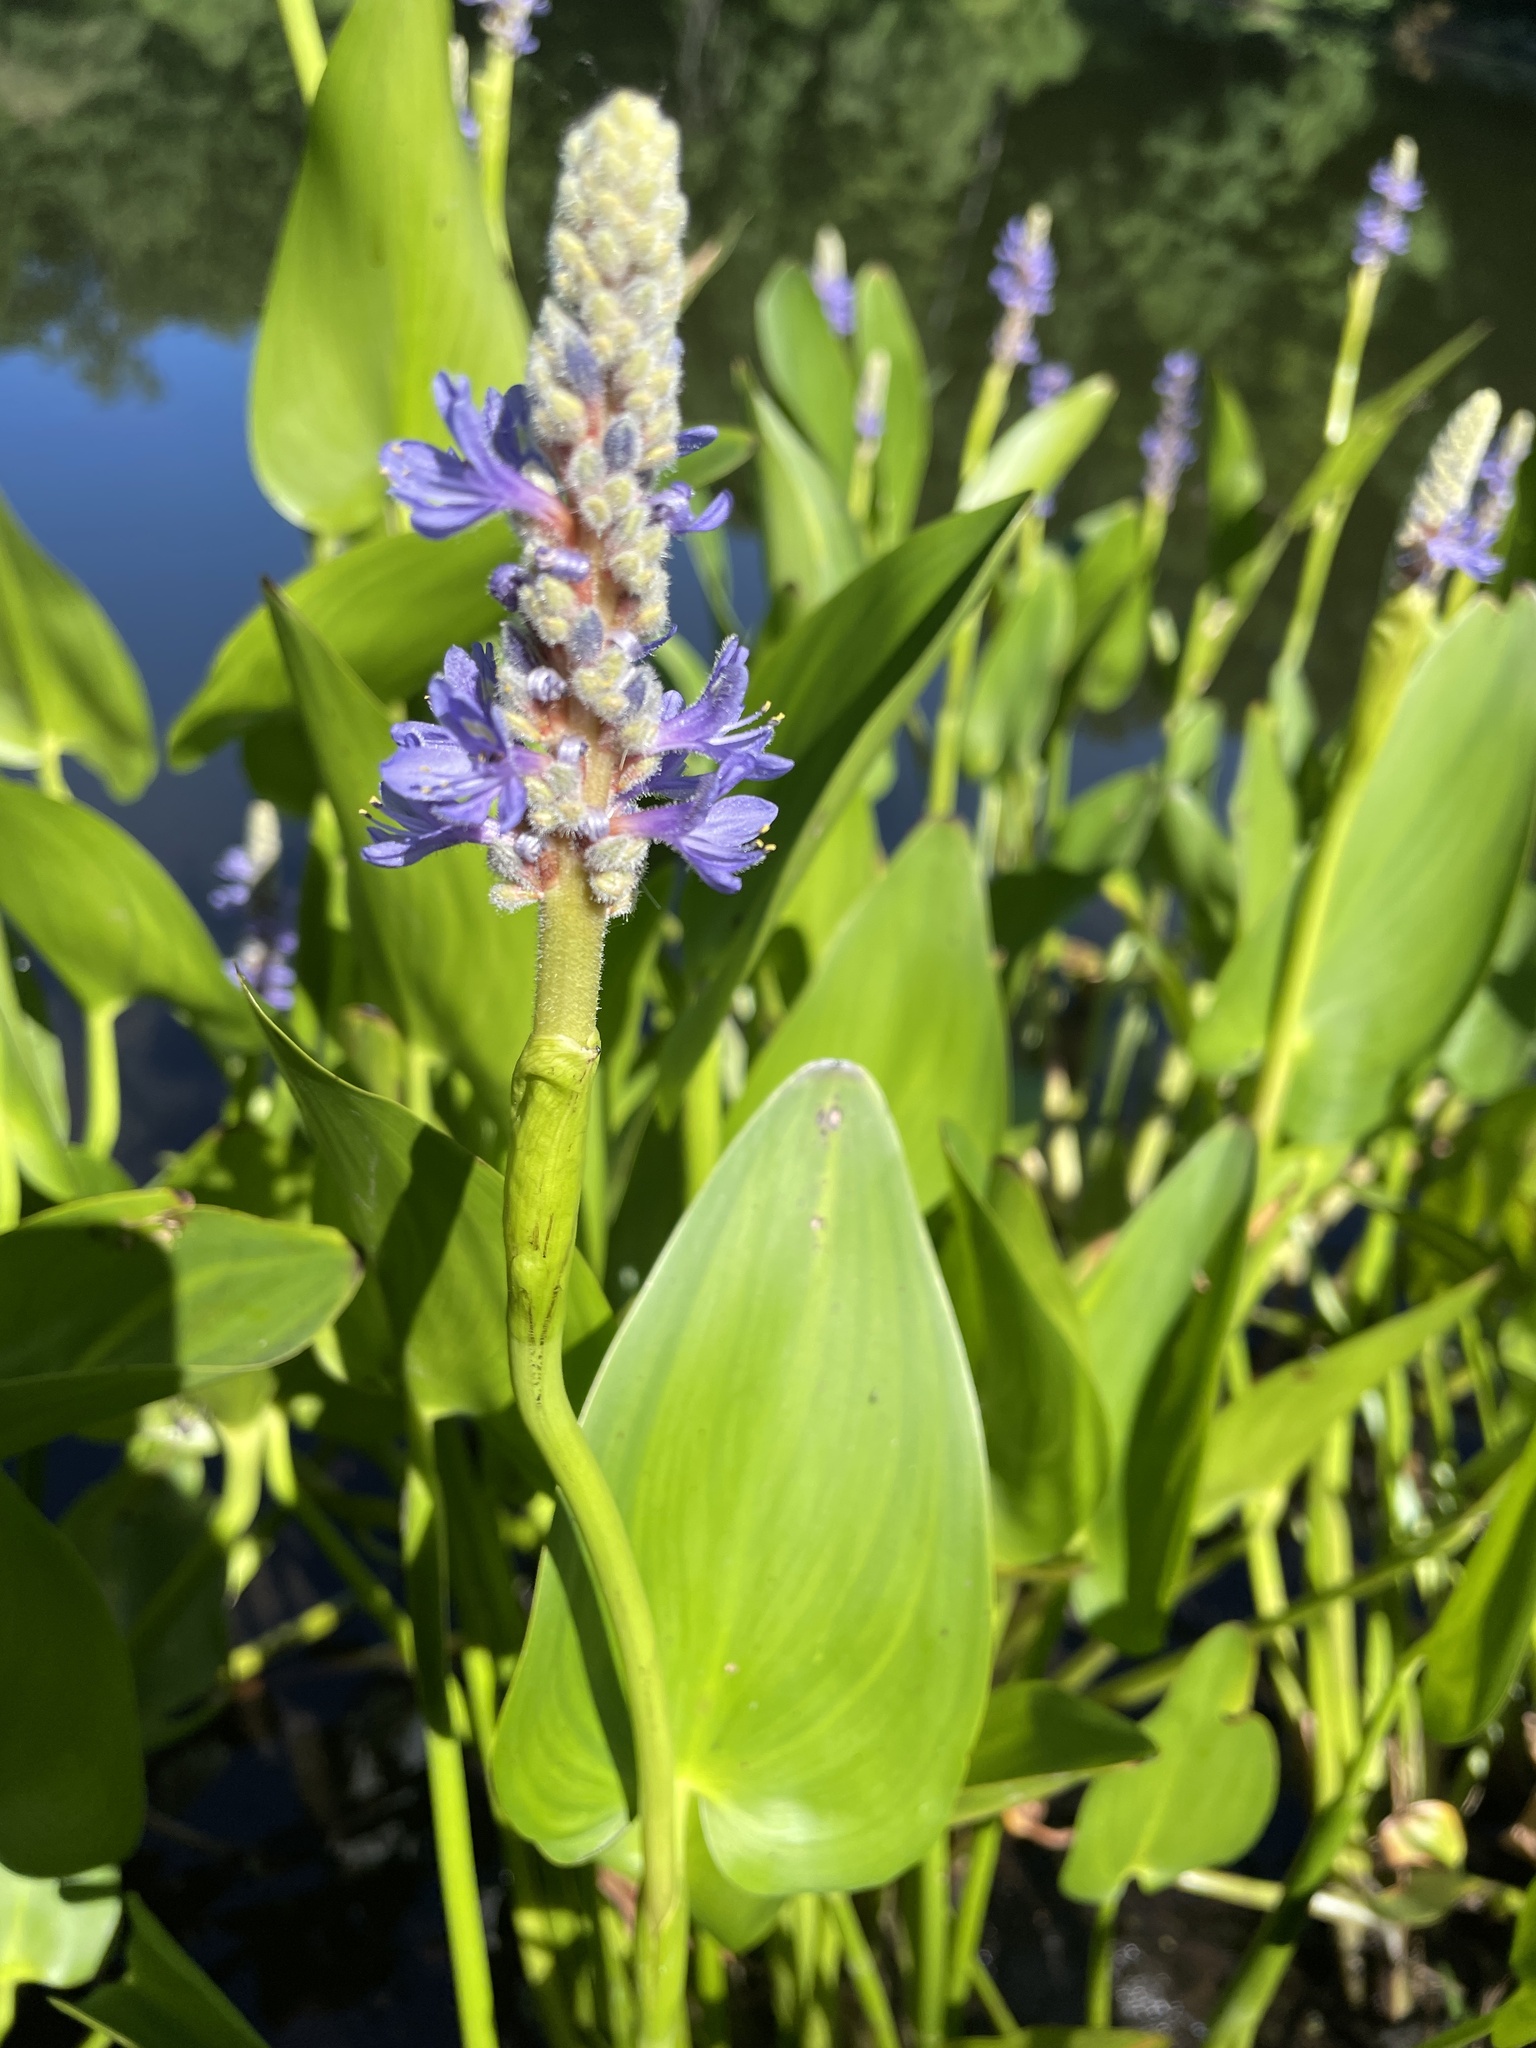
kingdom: Plantae
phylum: Tracheophyta
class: Liliopsida
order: Commelinales
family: Pontederiaceae
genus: Pontederia
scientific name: Pontederia cordata
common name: Pickerelweed
